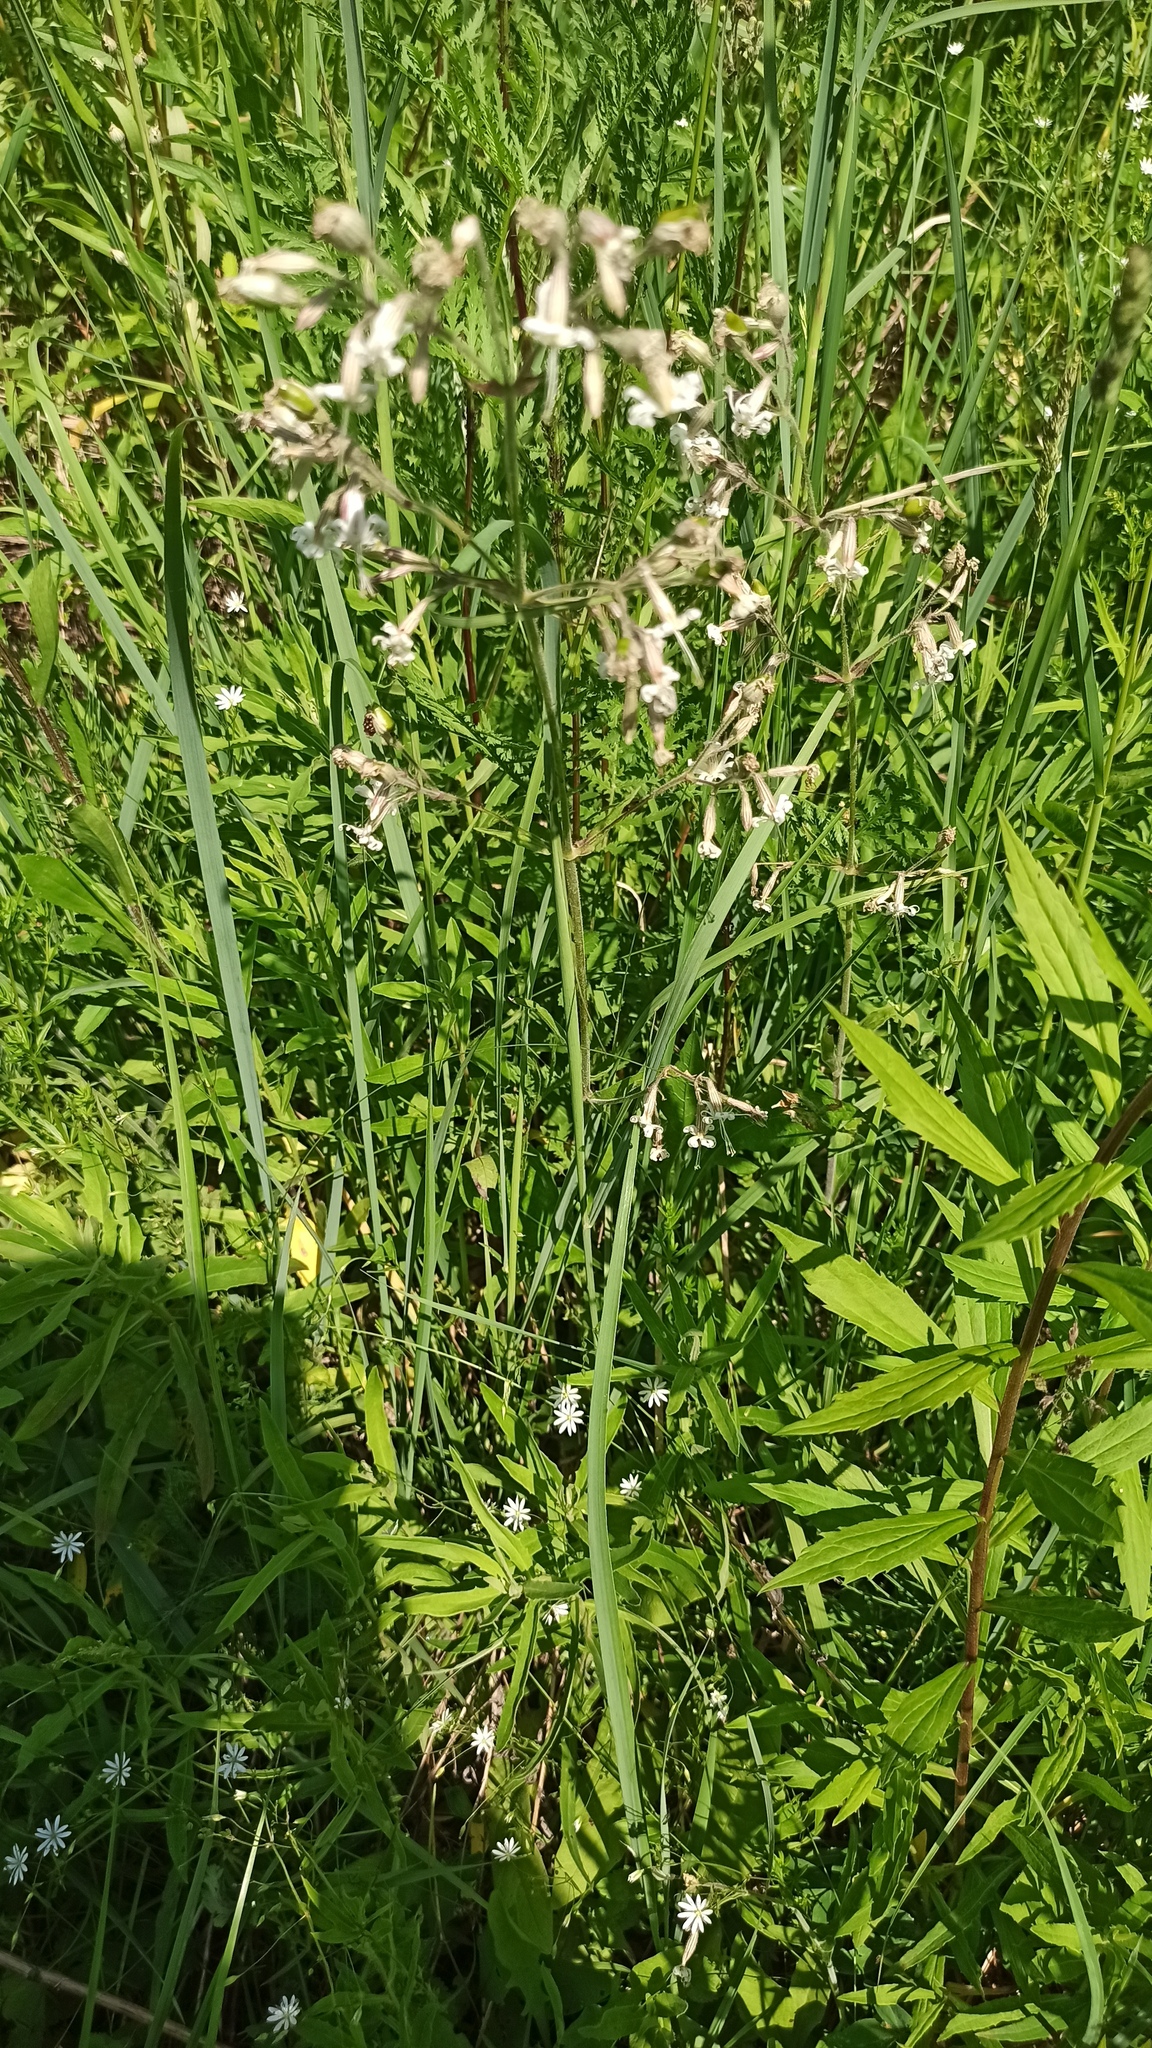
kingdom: Plantae
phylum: Tracheophyta
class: Magnoliopsida
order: Caryophyllales
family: Caryophyllaceae
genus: Silene
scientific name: Silene nutans
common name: Nottingham catchfly
